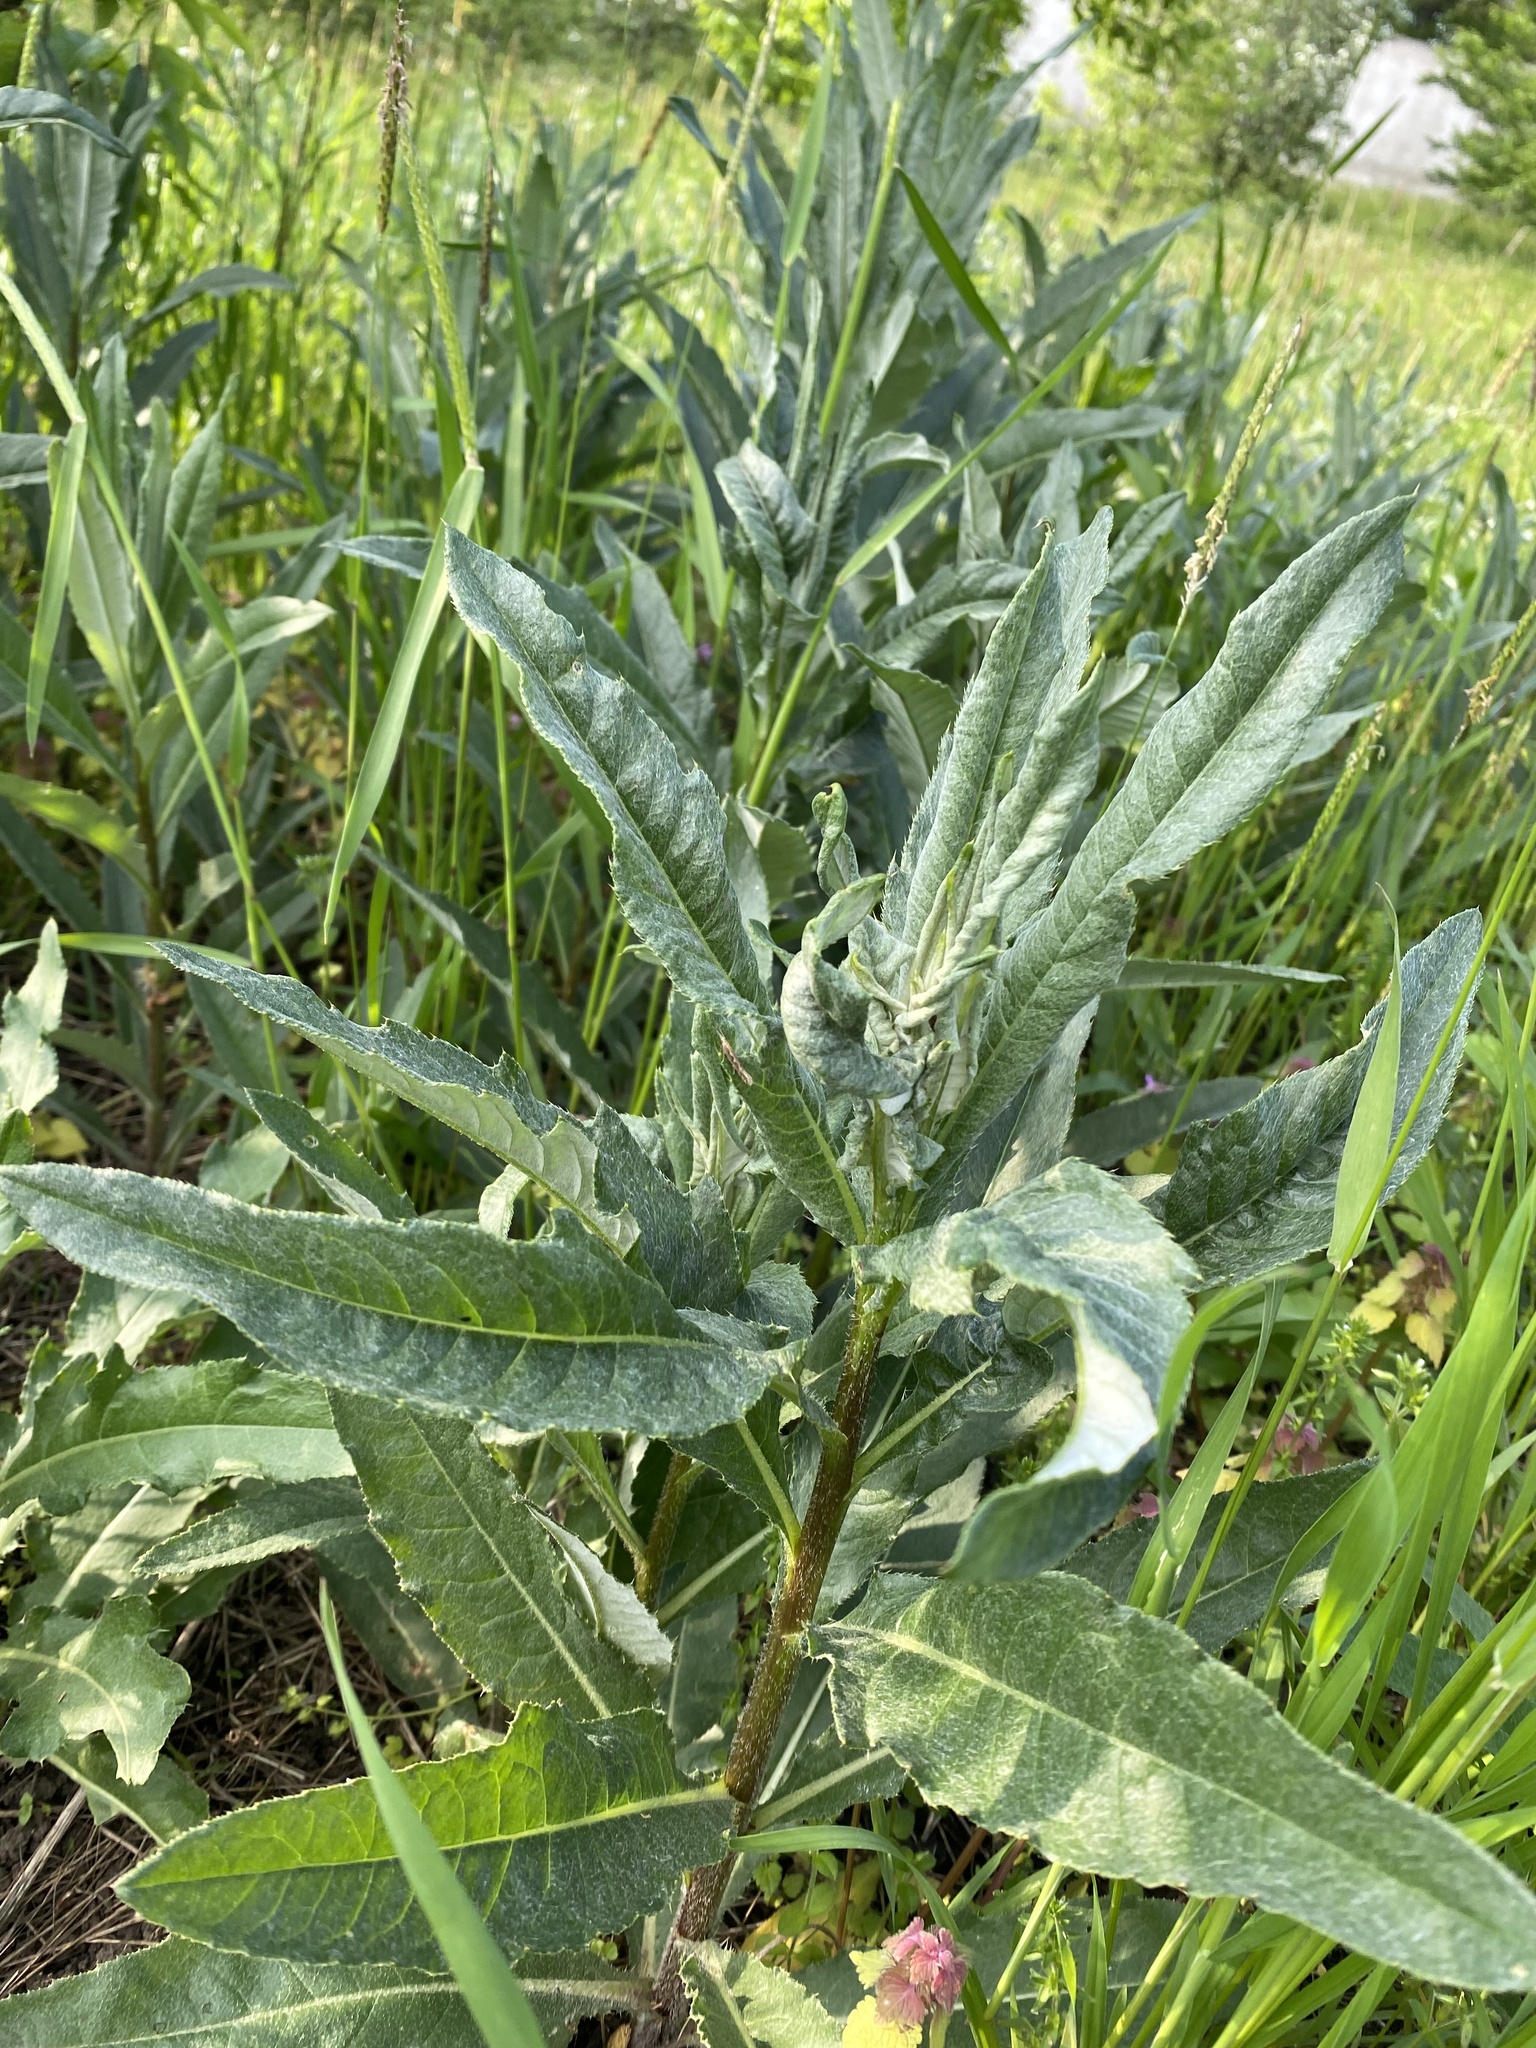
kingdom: Plantae
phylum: Tracheophyta
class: Magnoliopsida
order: Asterales
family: Asteraceae
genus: Cirsium
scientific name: Cirsium arvense
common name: Creeping thistle
